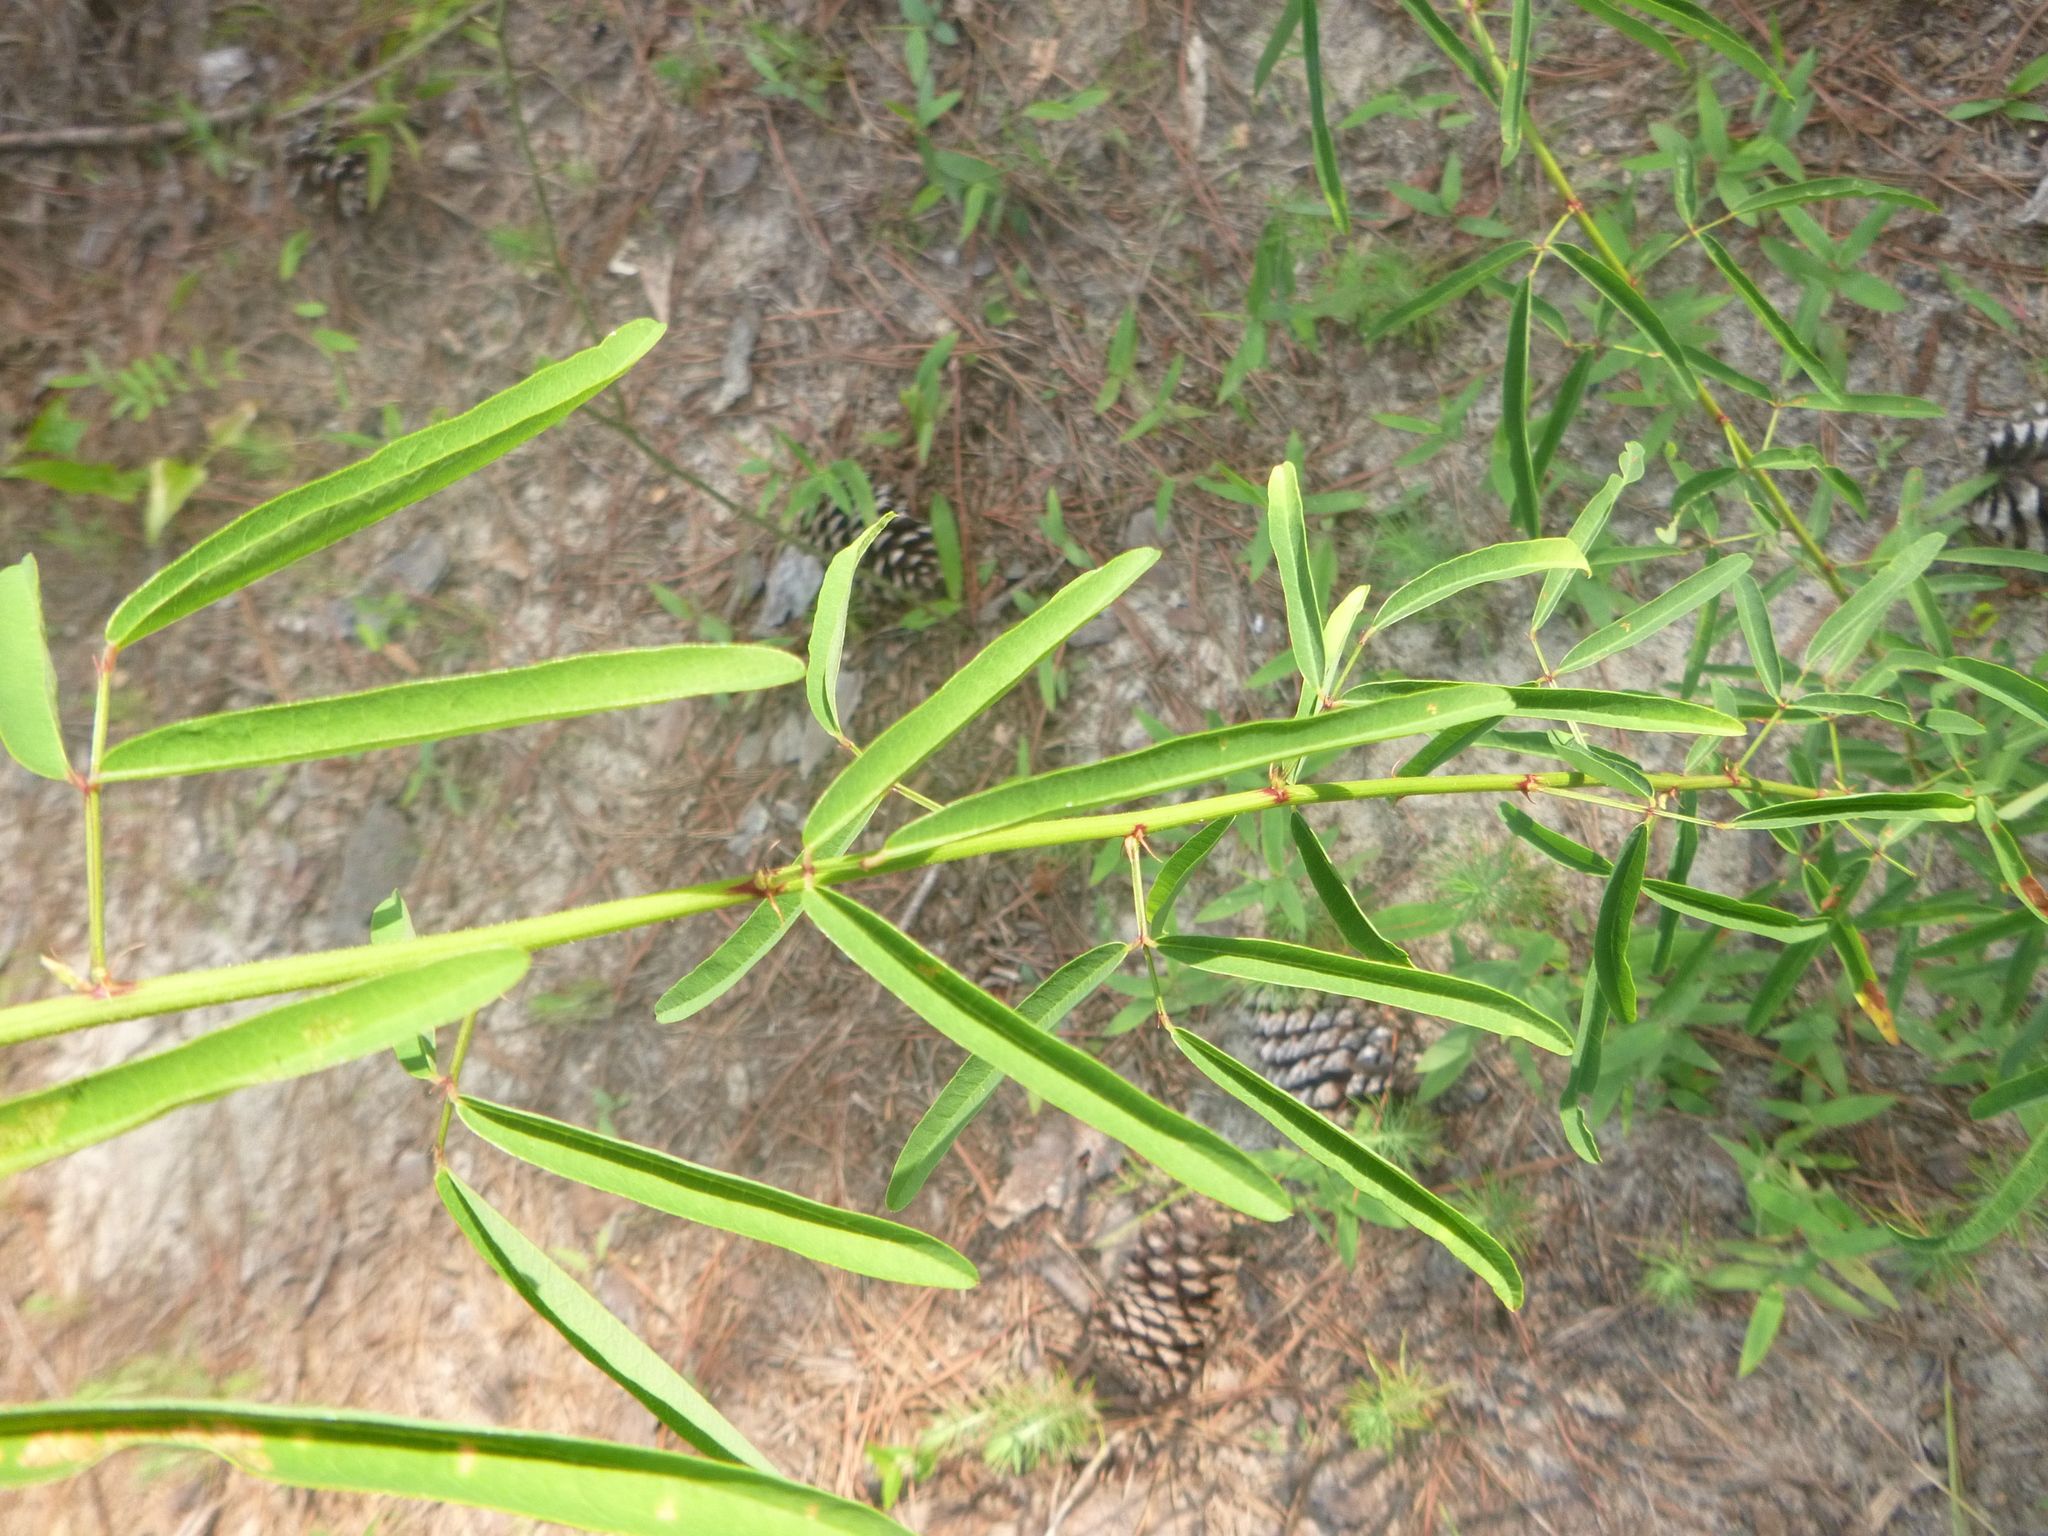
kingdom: Plantae
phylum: Tracheophyta
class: Magnoliopsida
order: Fabales
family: Fabaceae
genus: Desmodium
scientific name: Desmodium strictum
